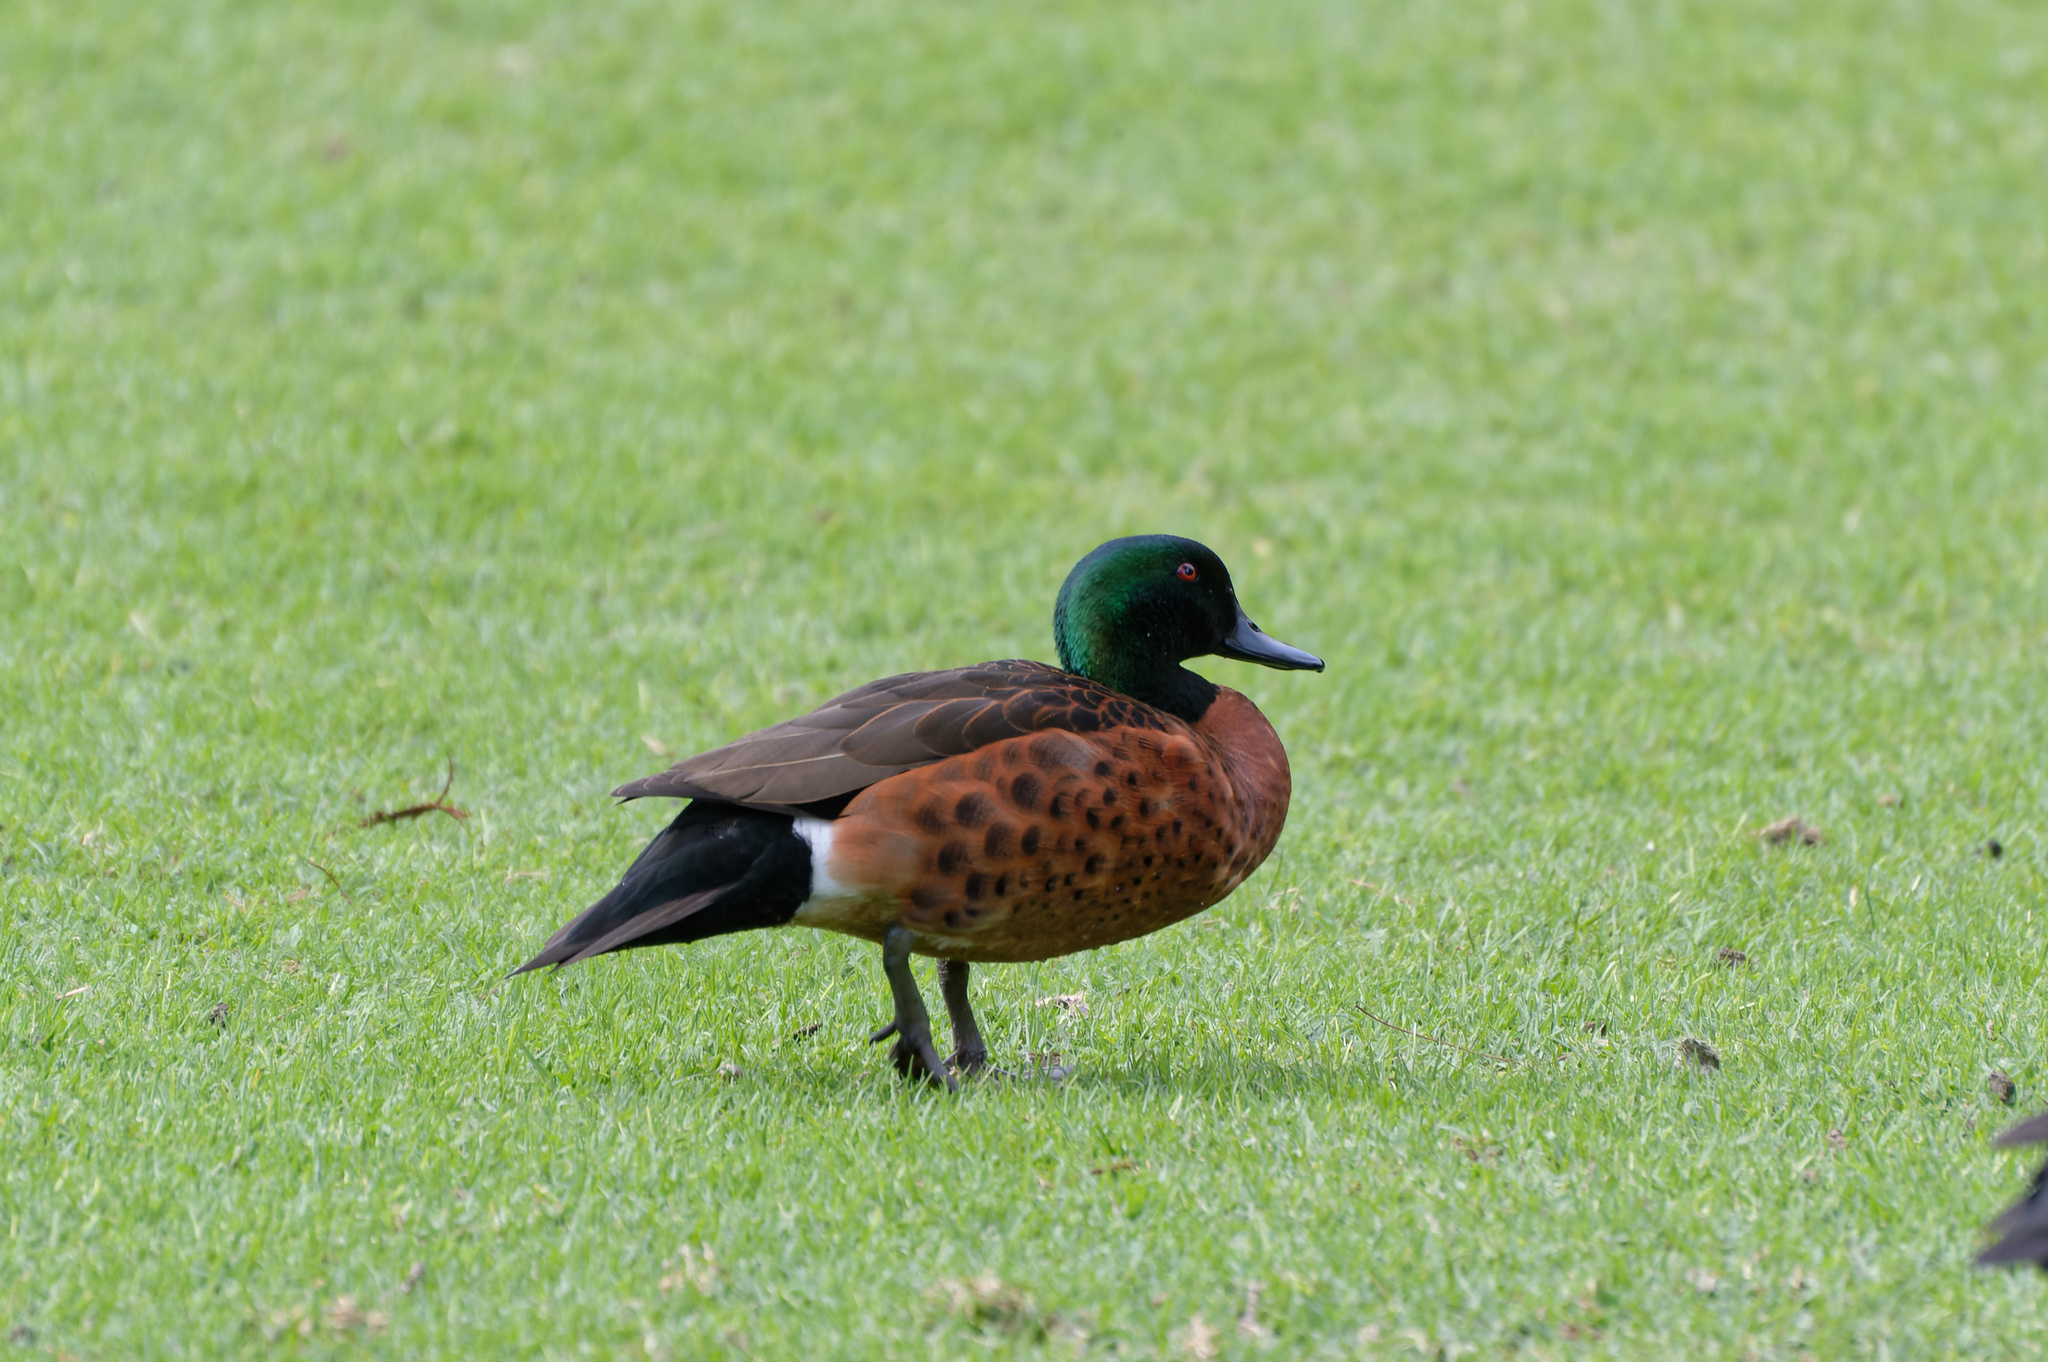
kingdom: Animalia
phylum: Chordata
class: Aves
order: Anseriformes
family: Anatidae
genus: Anas
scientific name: Anas castanea
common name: Chestnut teal
